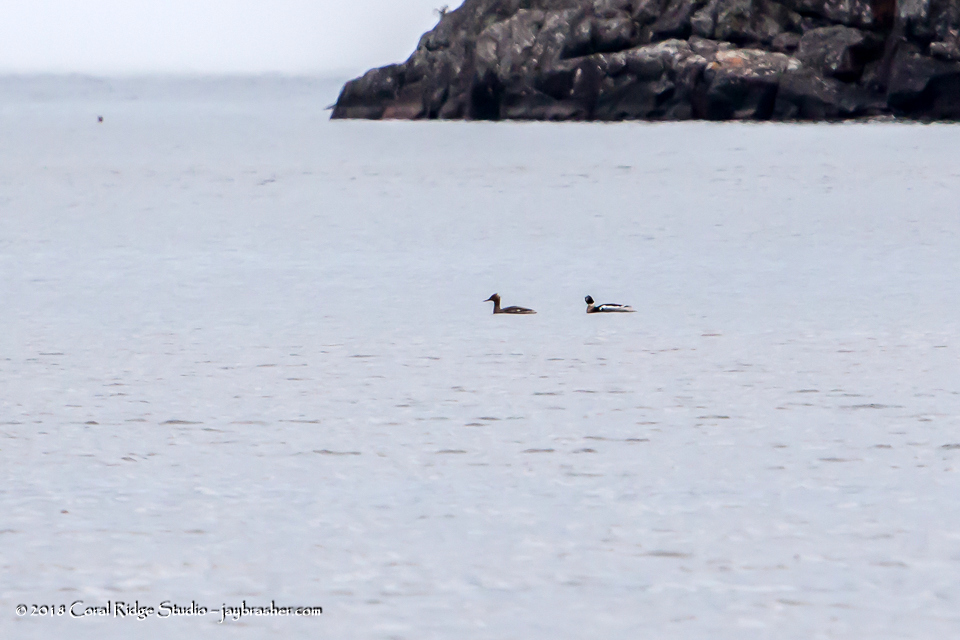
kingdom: Animalia
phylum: Chordata
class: Aves
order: Anseriformes
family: Anatidae
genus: Mergus
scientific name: Mergus serrator
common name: Red-breasted merganser
